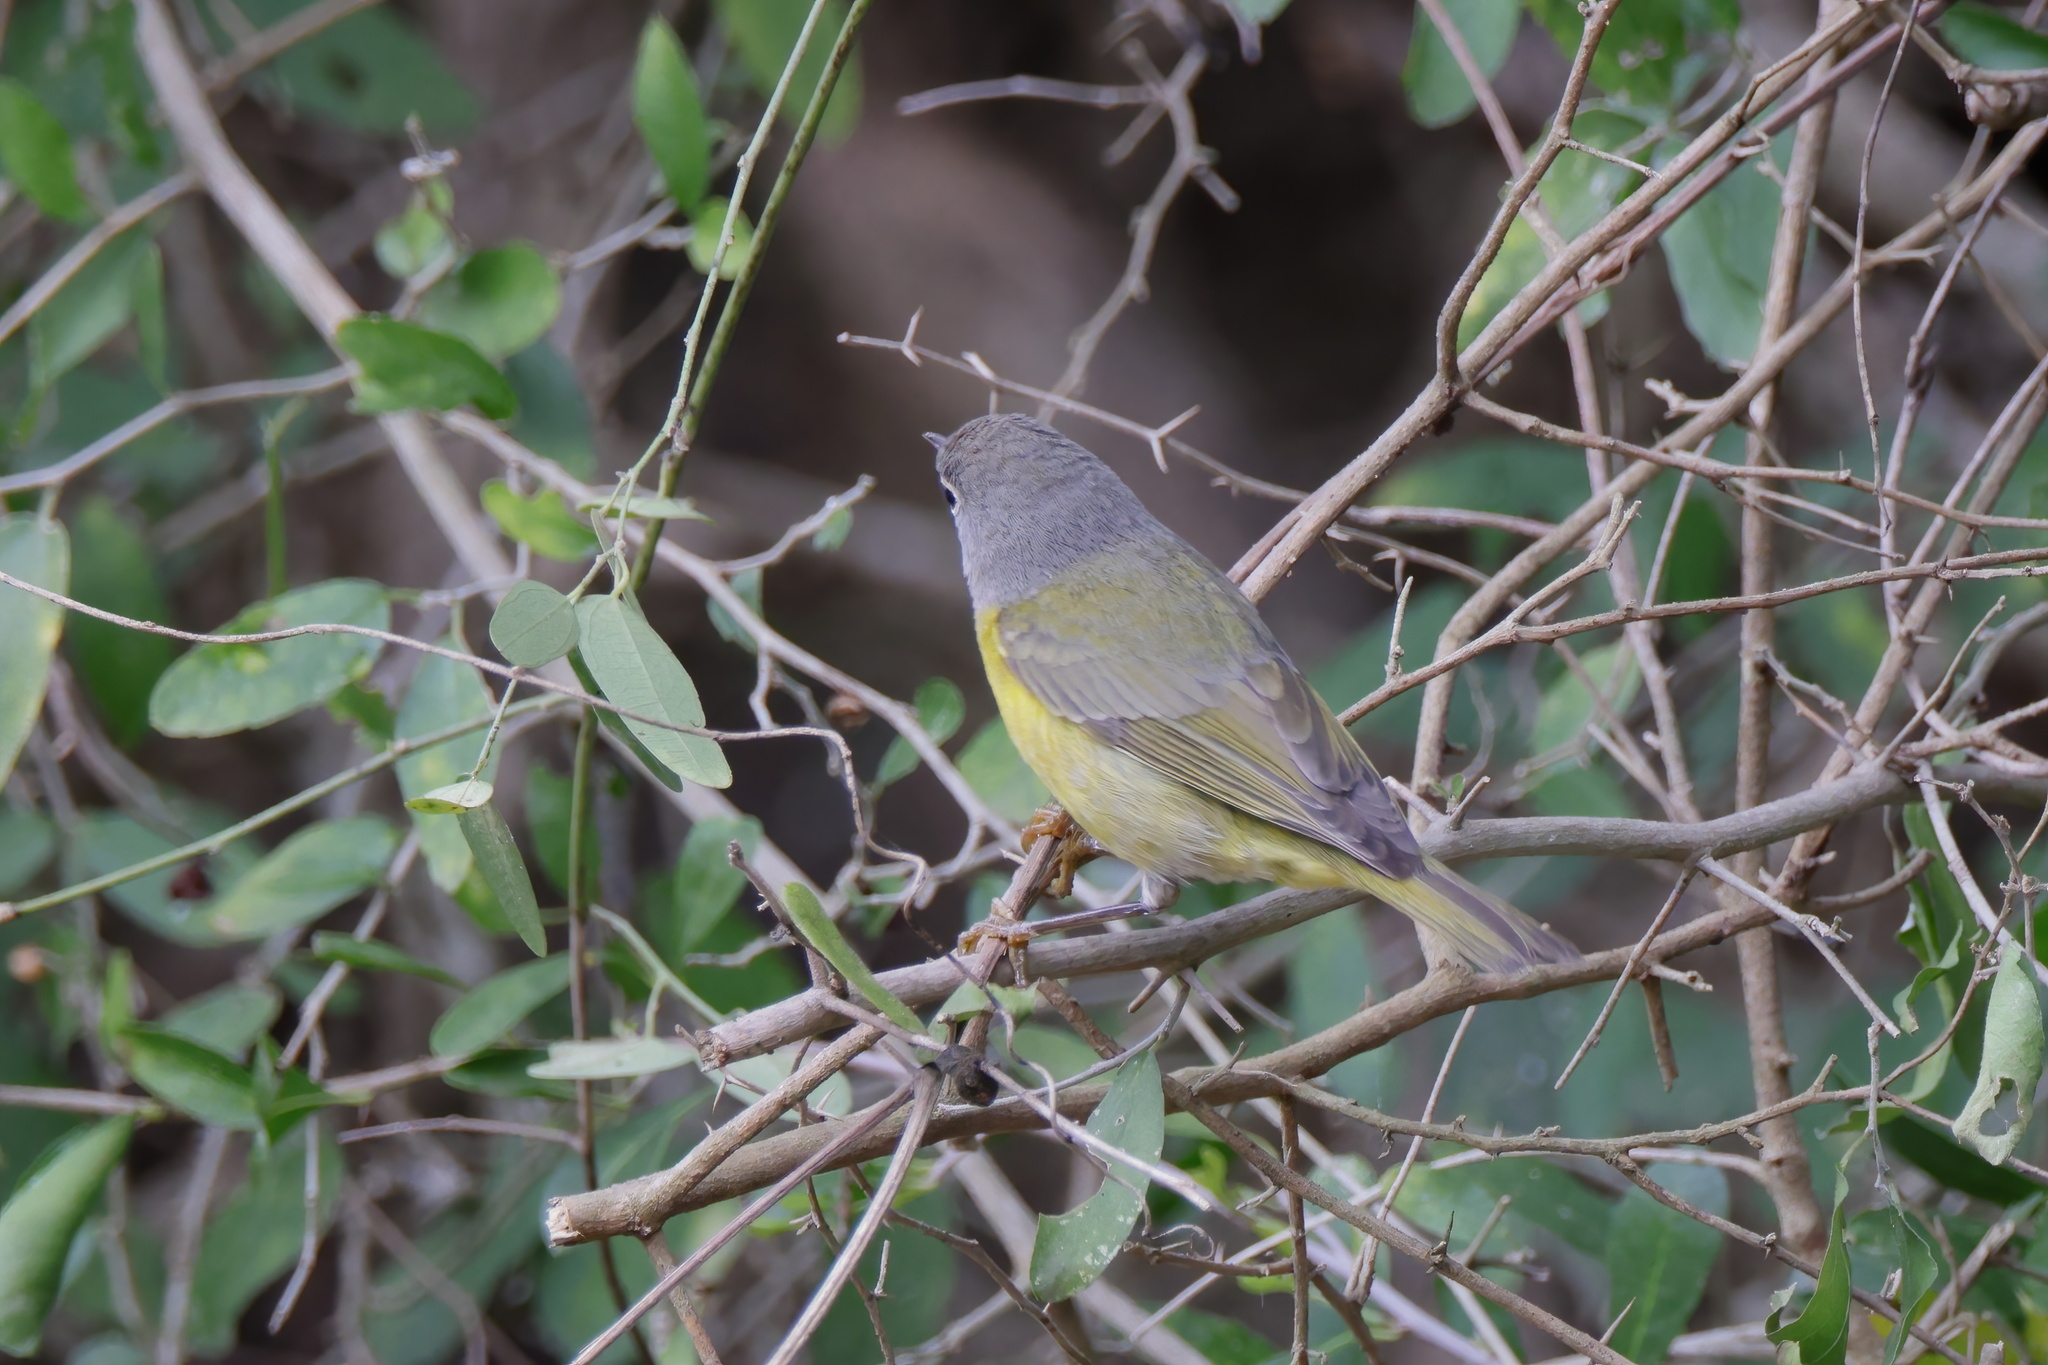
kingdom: Animalia
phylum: Chordata
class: Aves
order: Passeriformes
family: Parulidae
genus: Leiothlypis
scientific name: Leiothlypis ruficapilla
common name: Nashville warbler
